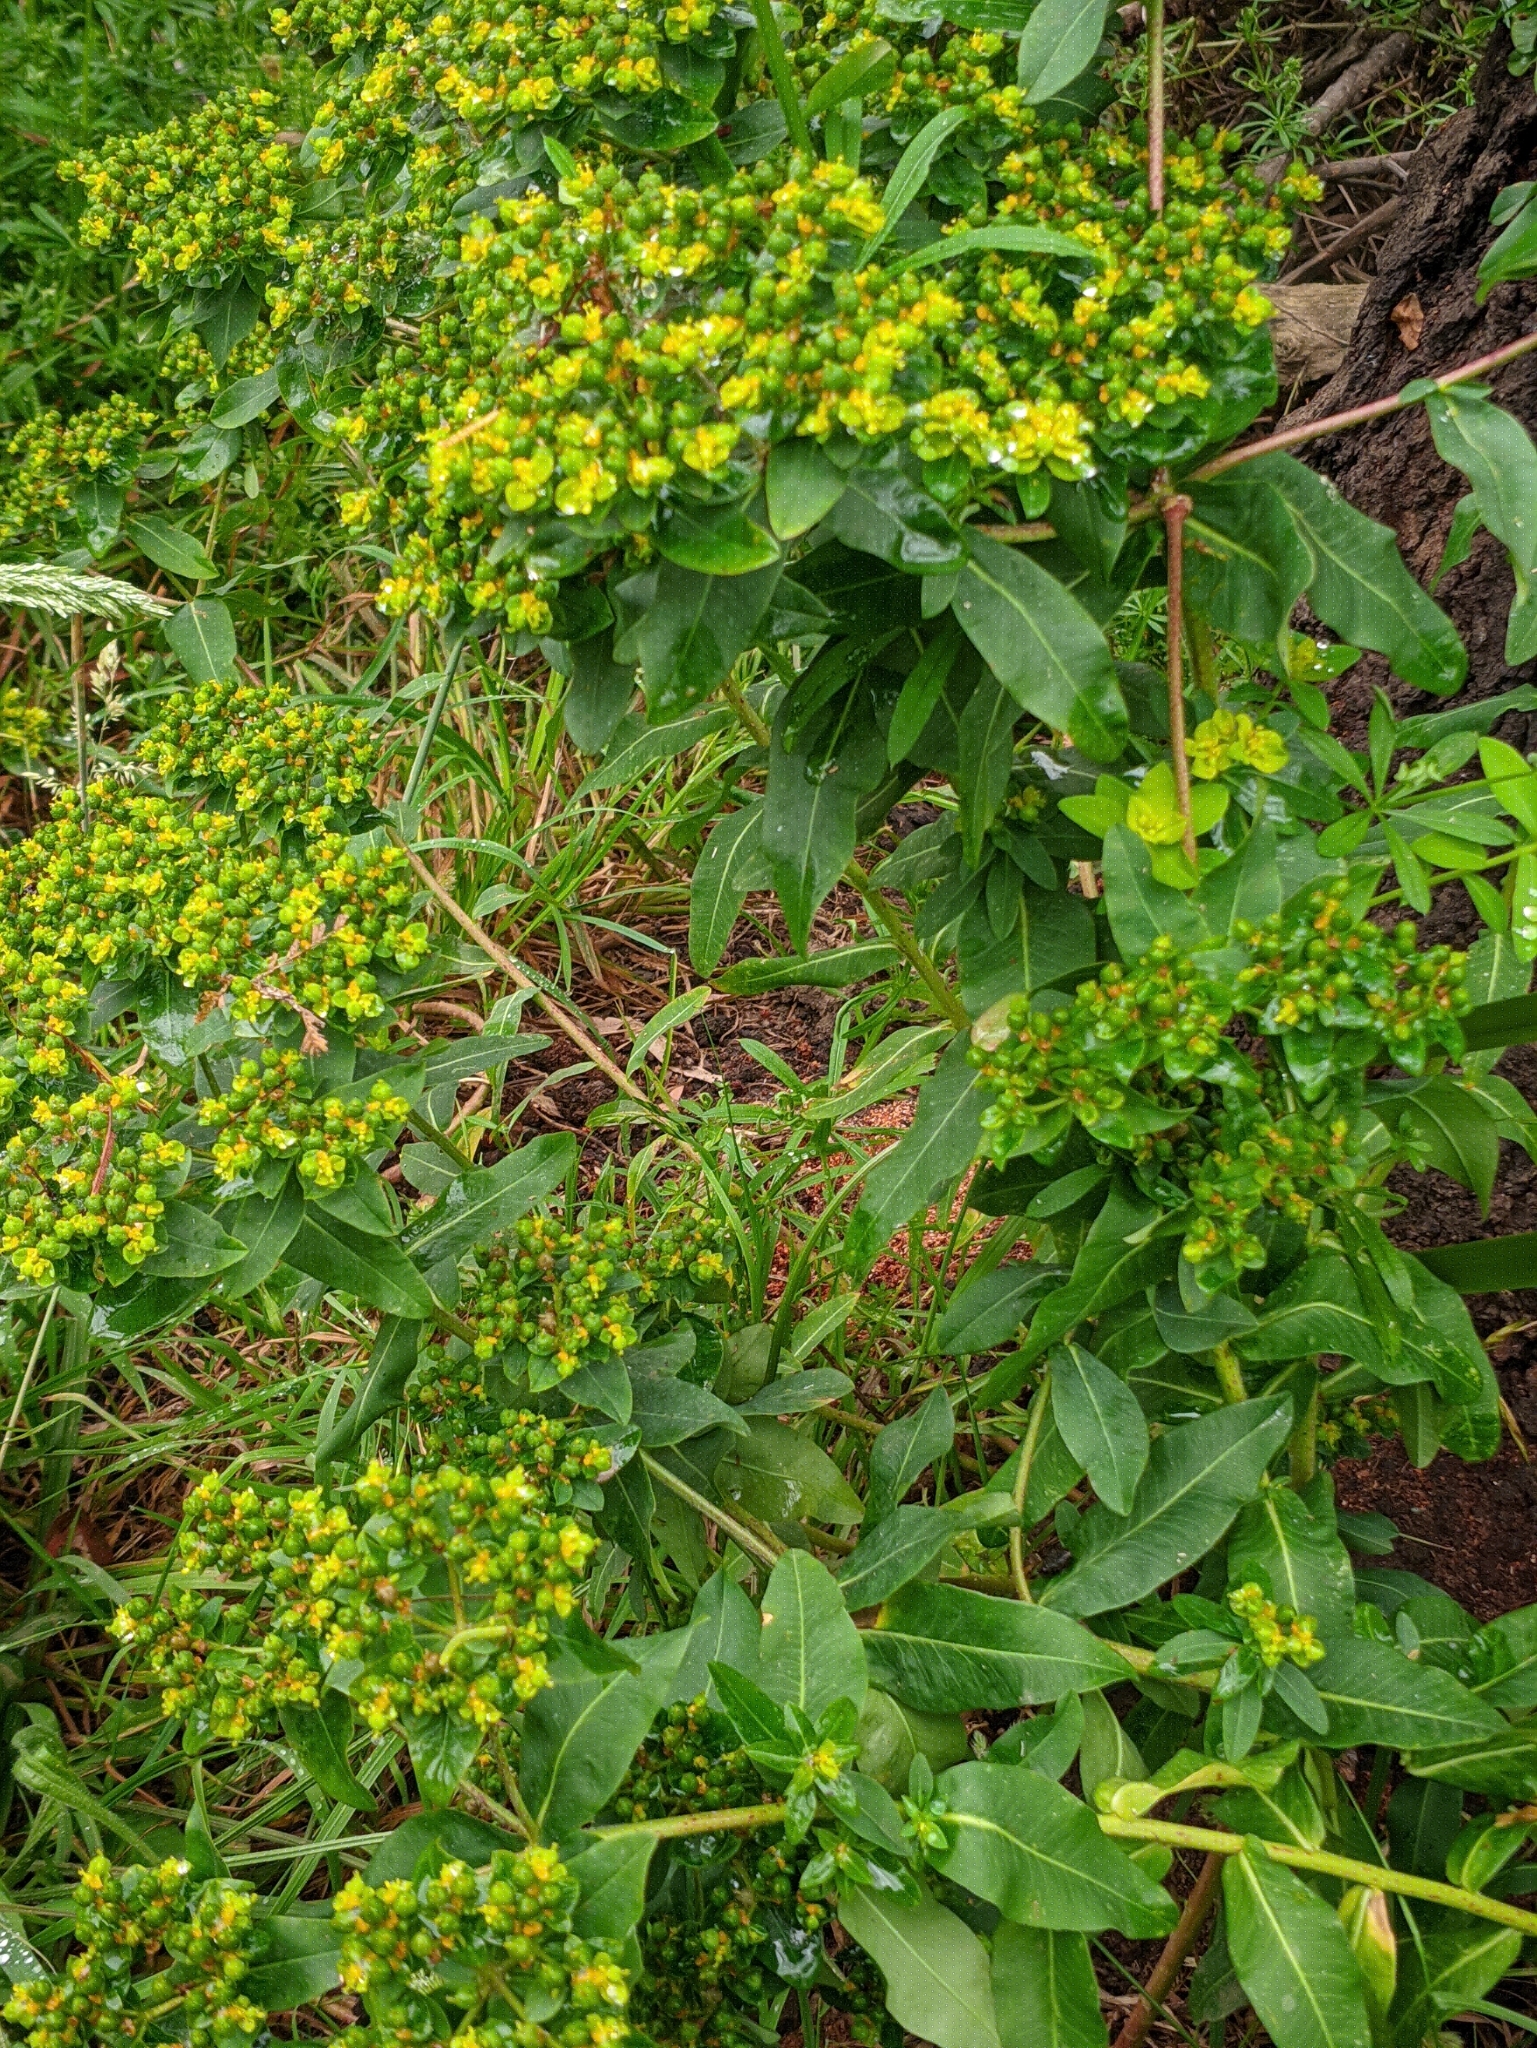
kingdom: Plantae
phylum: Tracheophyta
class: Magnoliopsida
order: Malpighiales
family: Euphorbiaceae
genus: Euphorbia
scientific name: Euphorbia oblongata
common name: Balkan spurge
